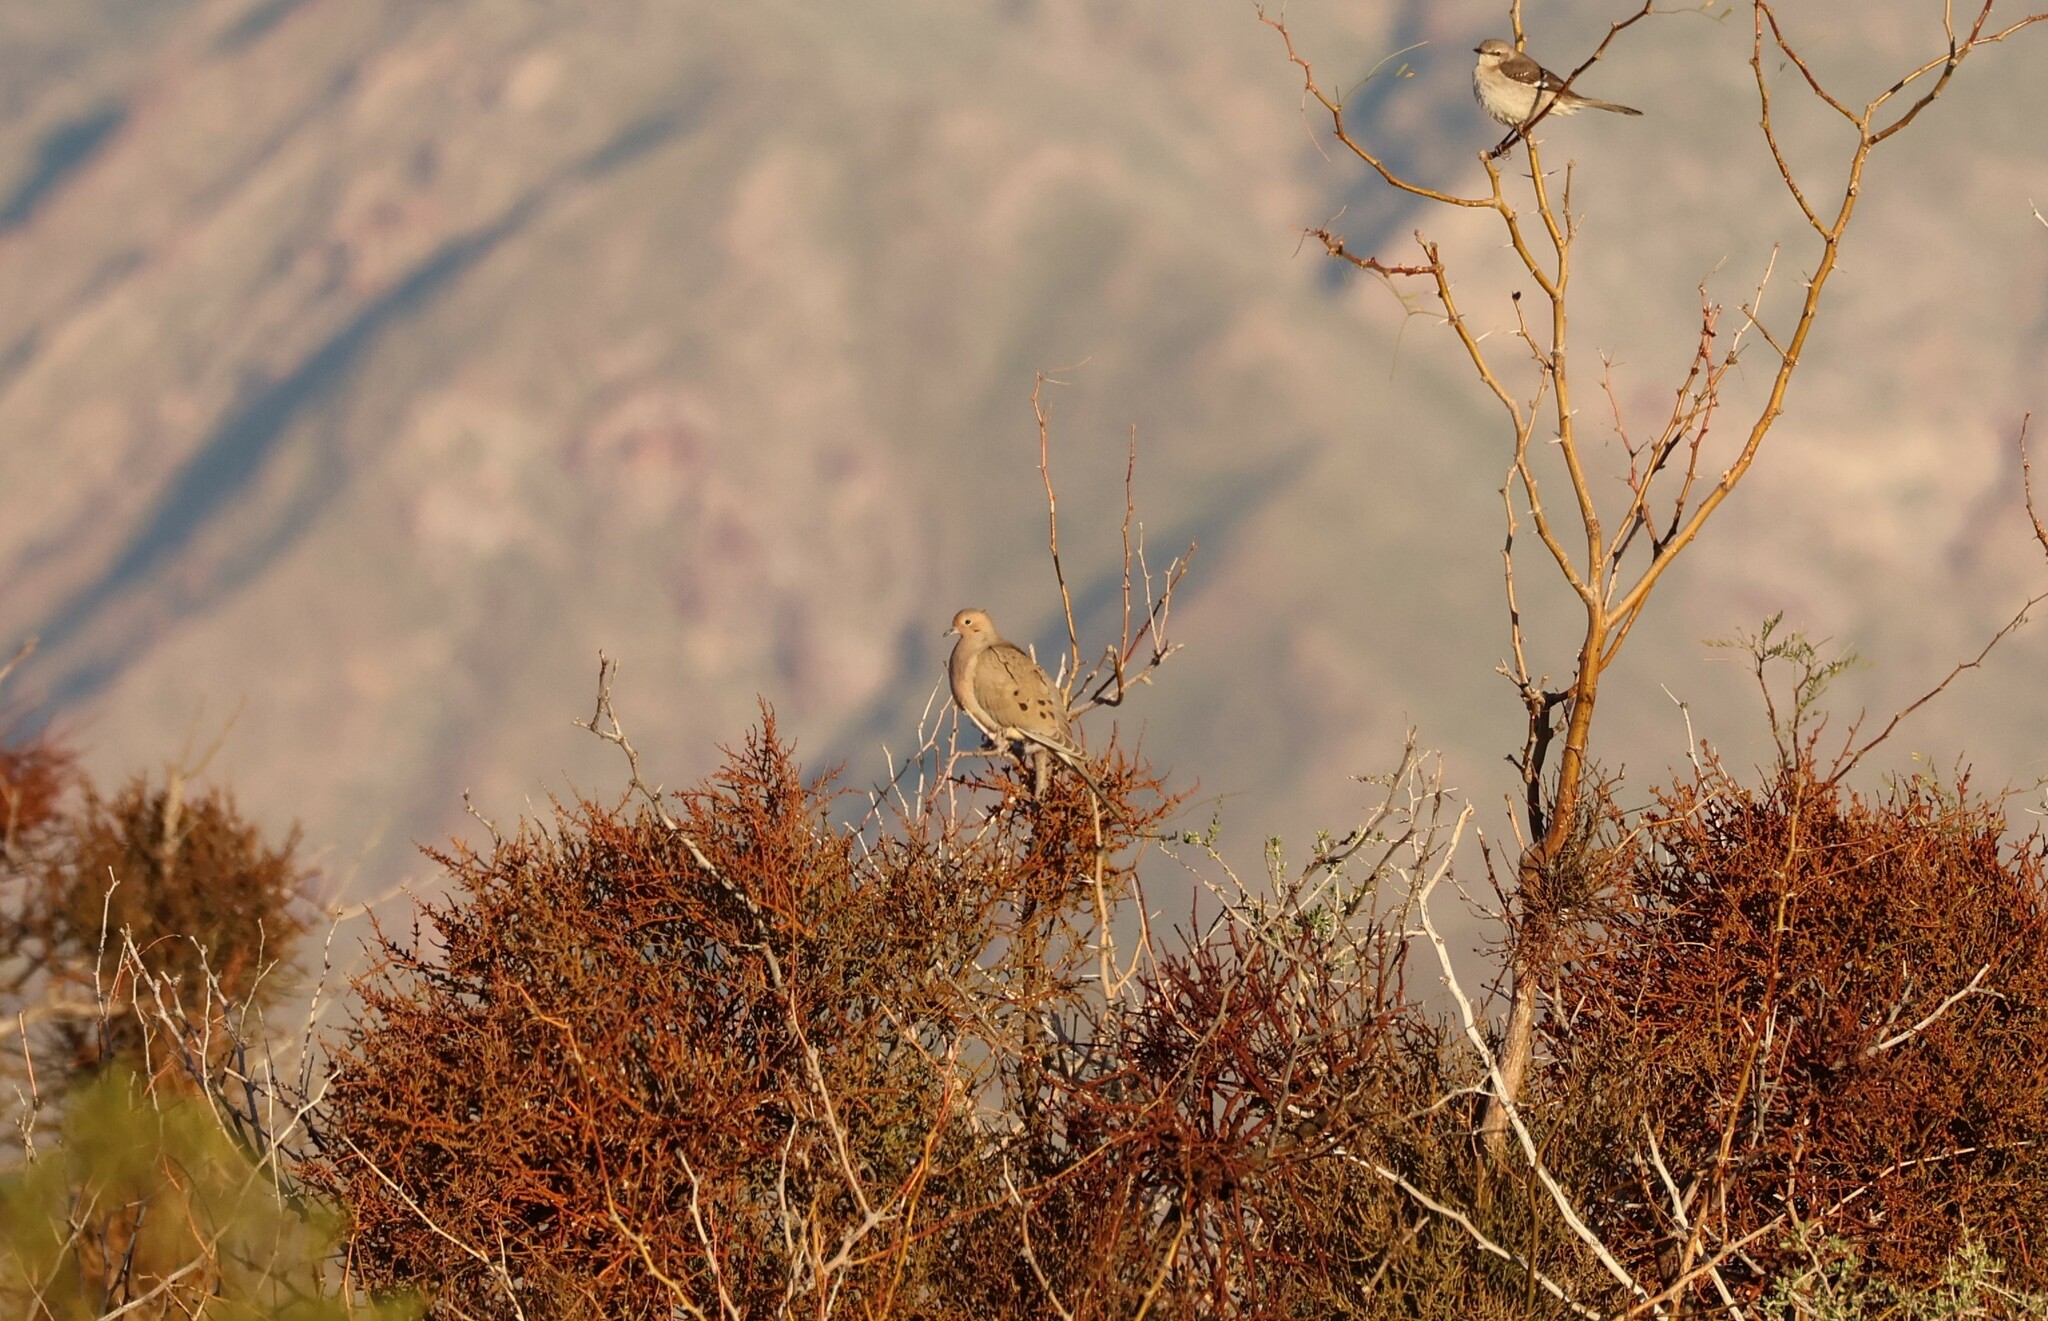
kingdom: Animalia
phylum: Chordata
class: Aves
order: Columbiformes
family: Columbidae
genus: Zenaida
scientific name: Zenaida macroura
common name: Mourning dove
